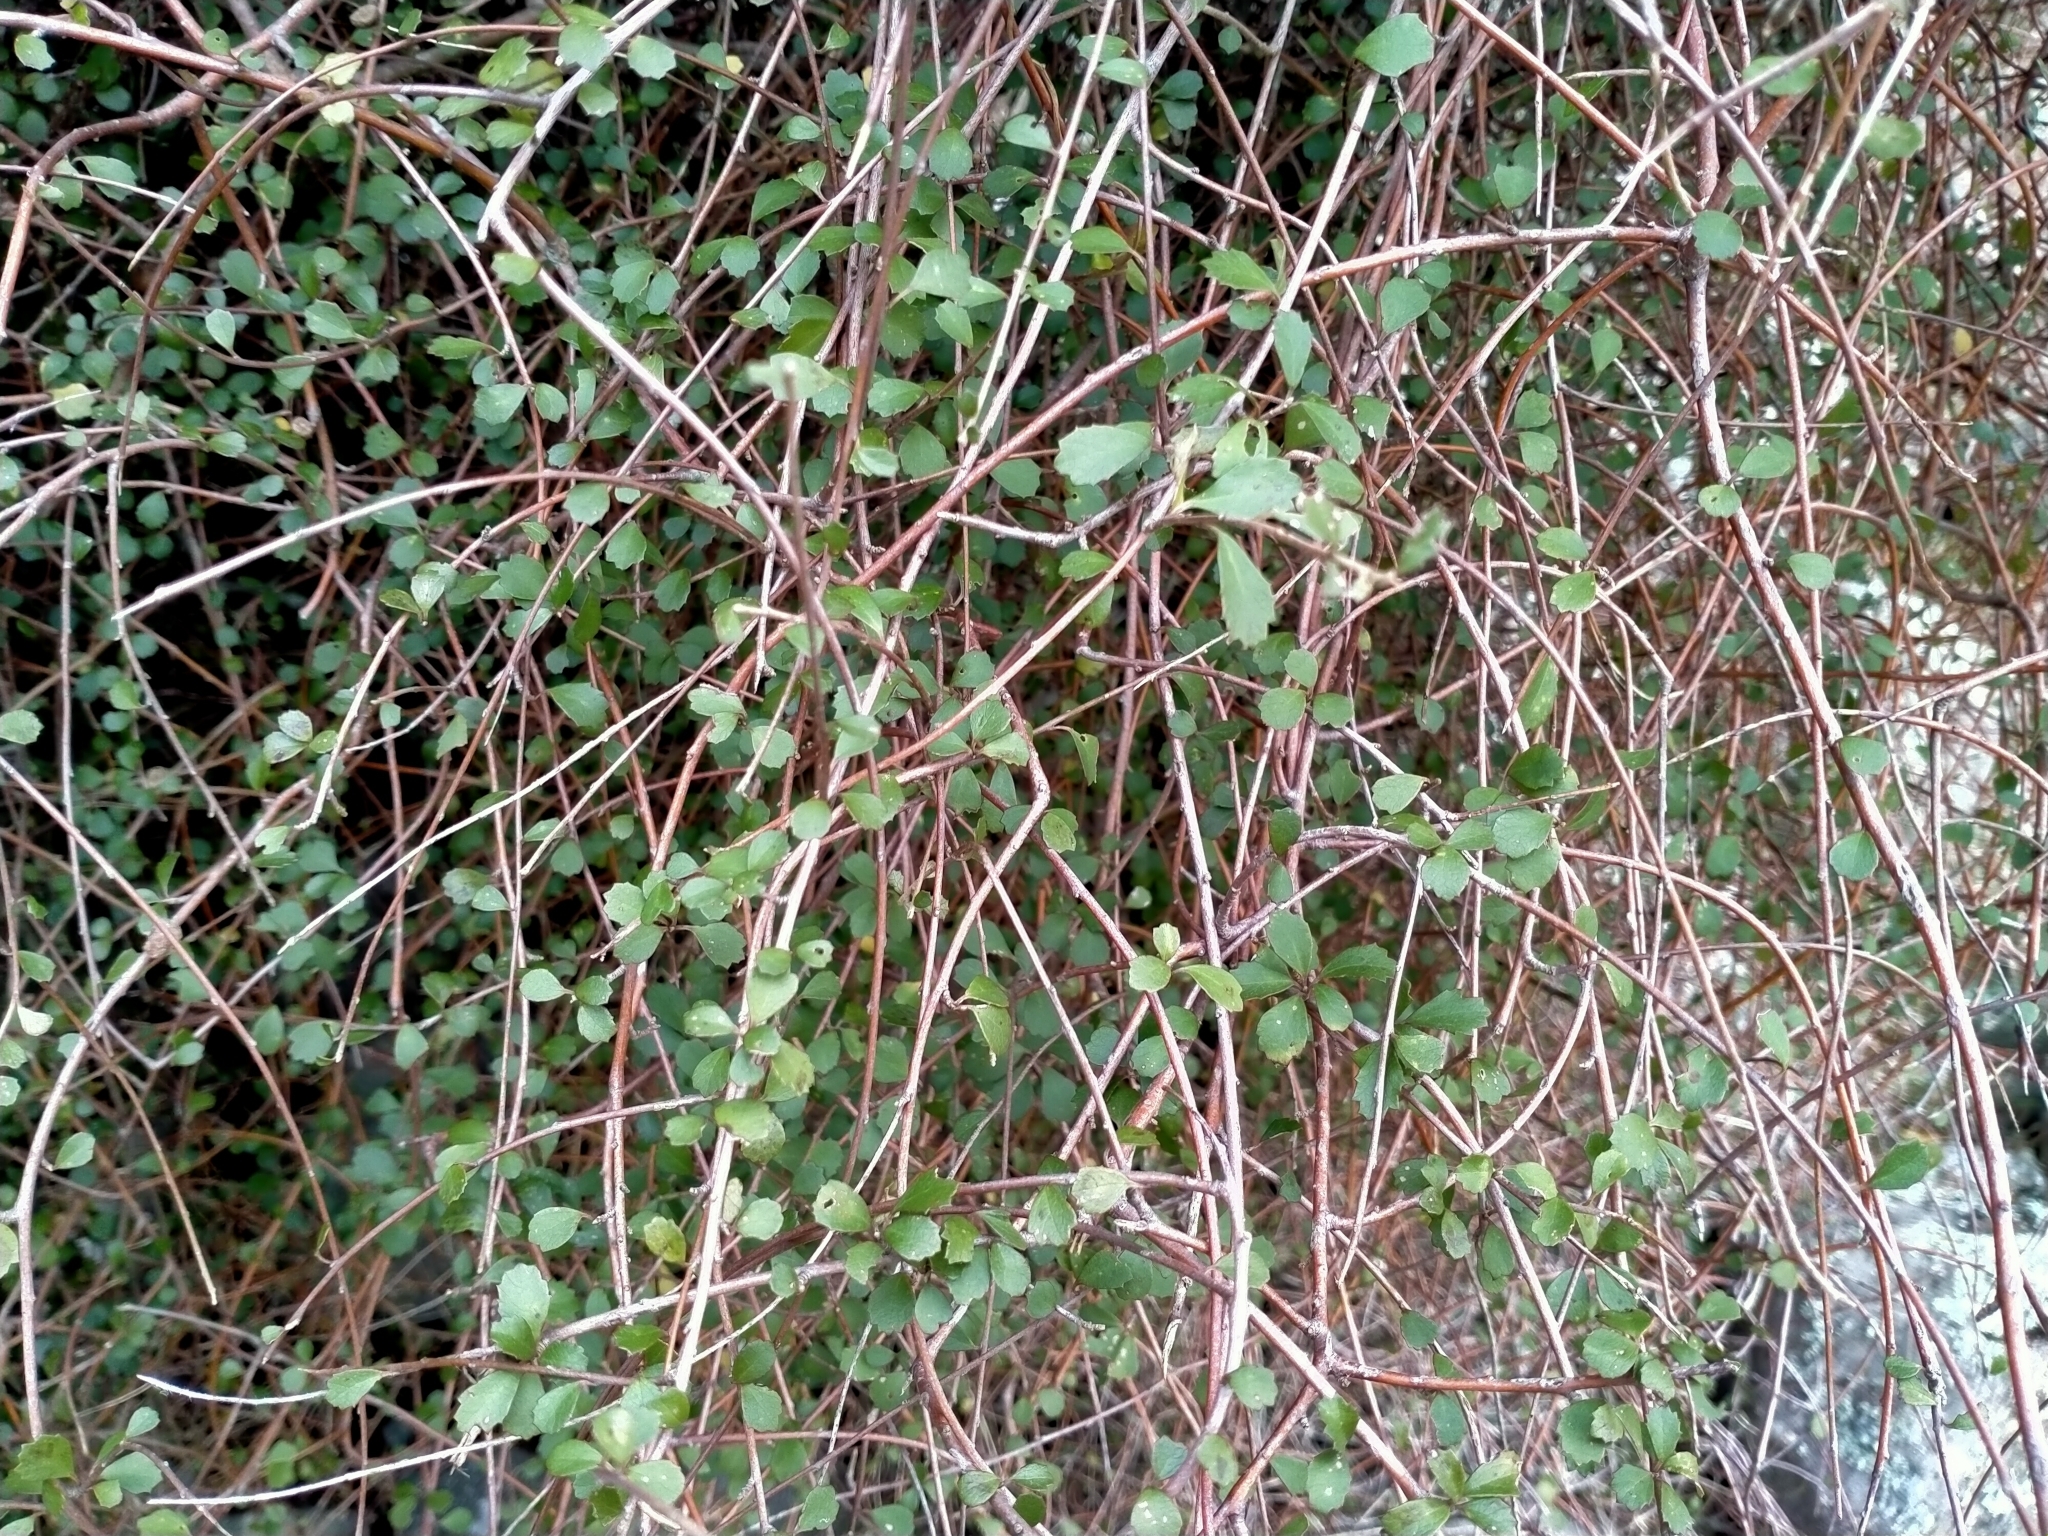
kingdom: Plantae
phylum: Tracheophyta
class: Magnoliopsida
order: Malvales
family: Malvaceae
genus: Hoheria
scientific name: Hoheria angustifolia
